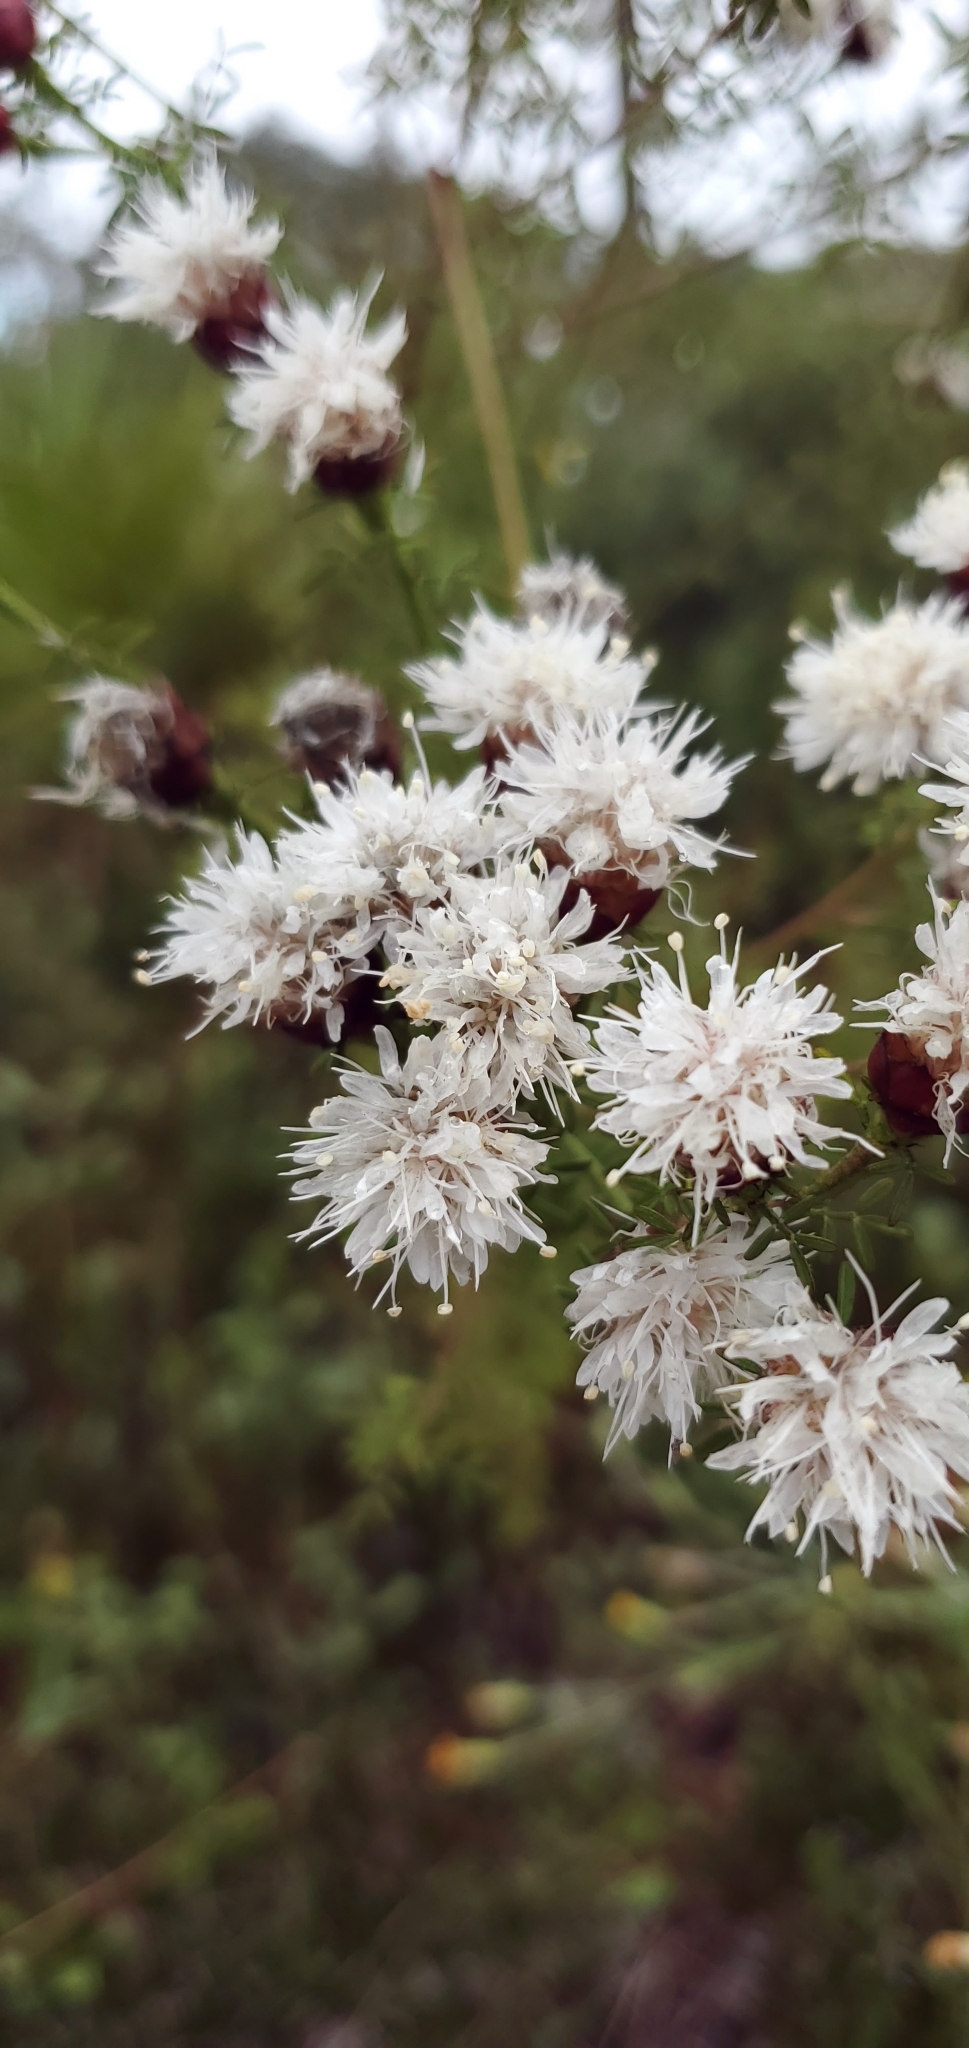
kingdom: Plantae
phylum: Tracheophyta
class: Magnoliopsida
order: Fabales
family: Fabaceae
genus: Dalea
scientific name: Dalea pinnata
